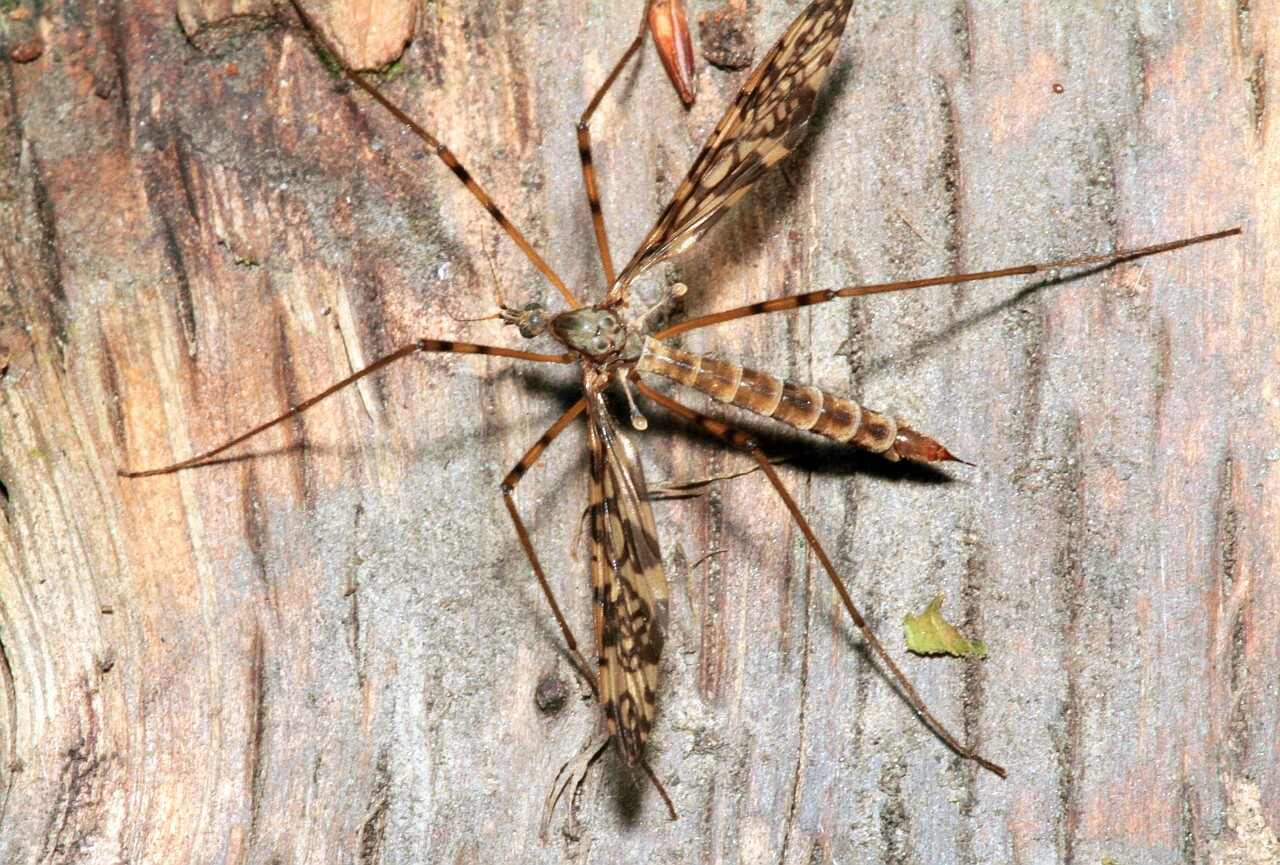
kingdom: Animalia
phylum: Arthropoda
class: Insecta
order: Diptera
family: Limoniidae
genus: Epiphragma
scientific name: Epiphragma ocellare
